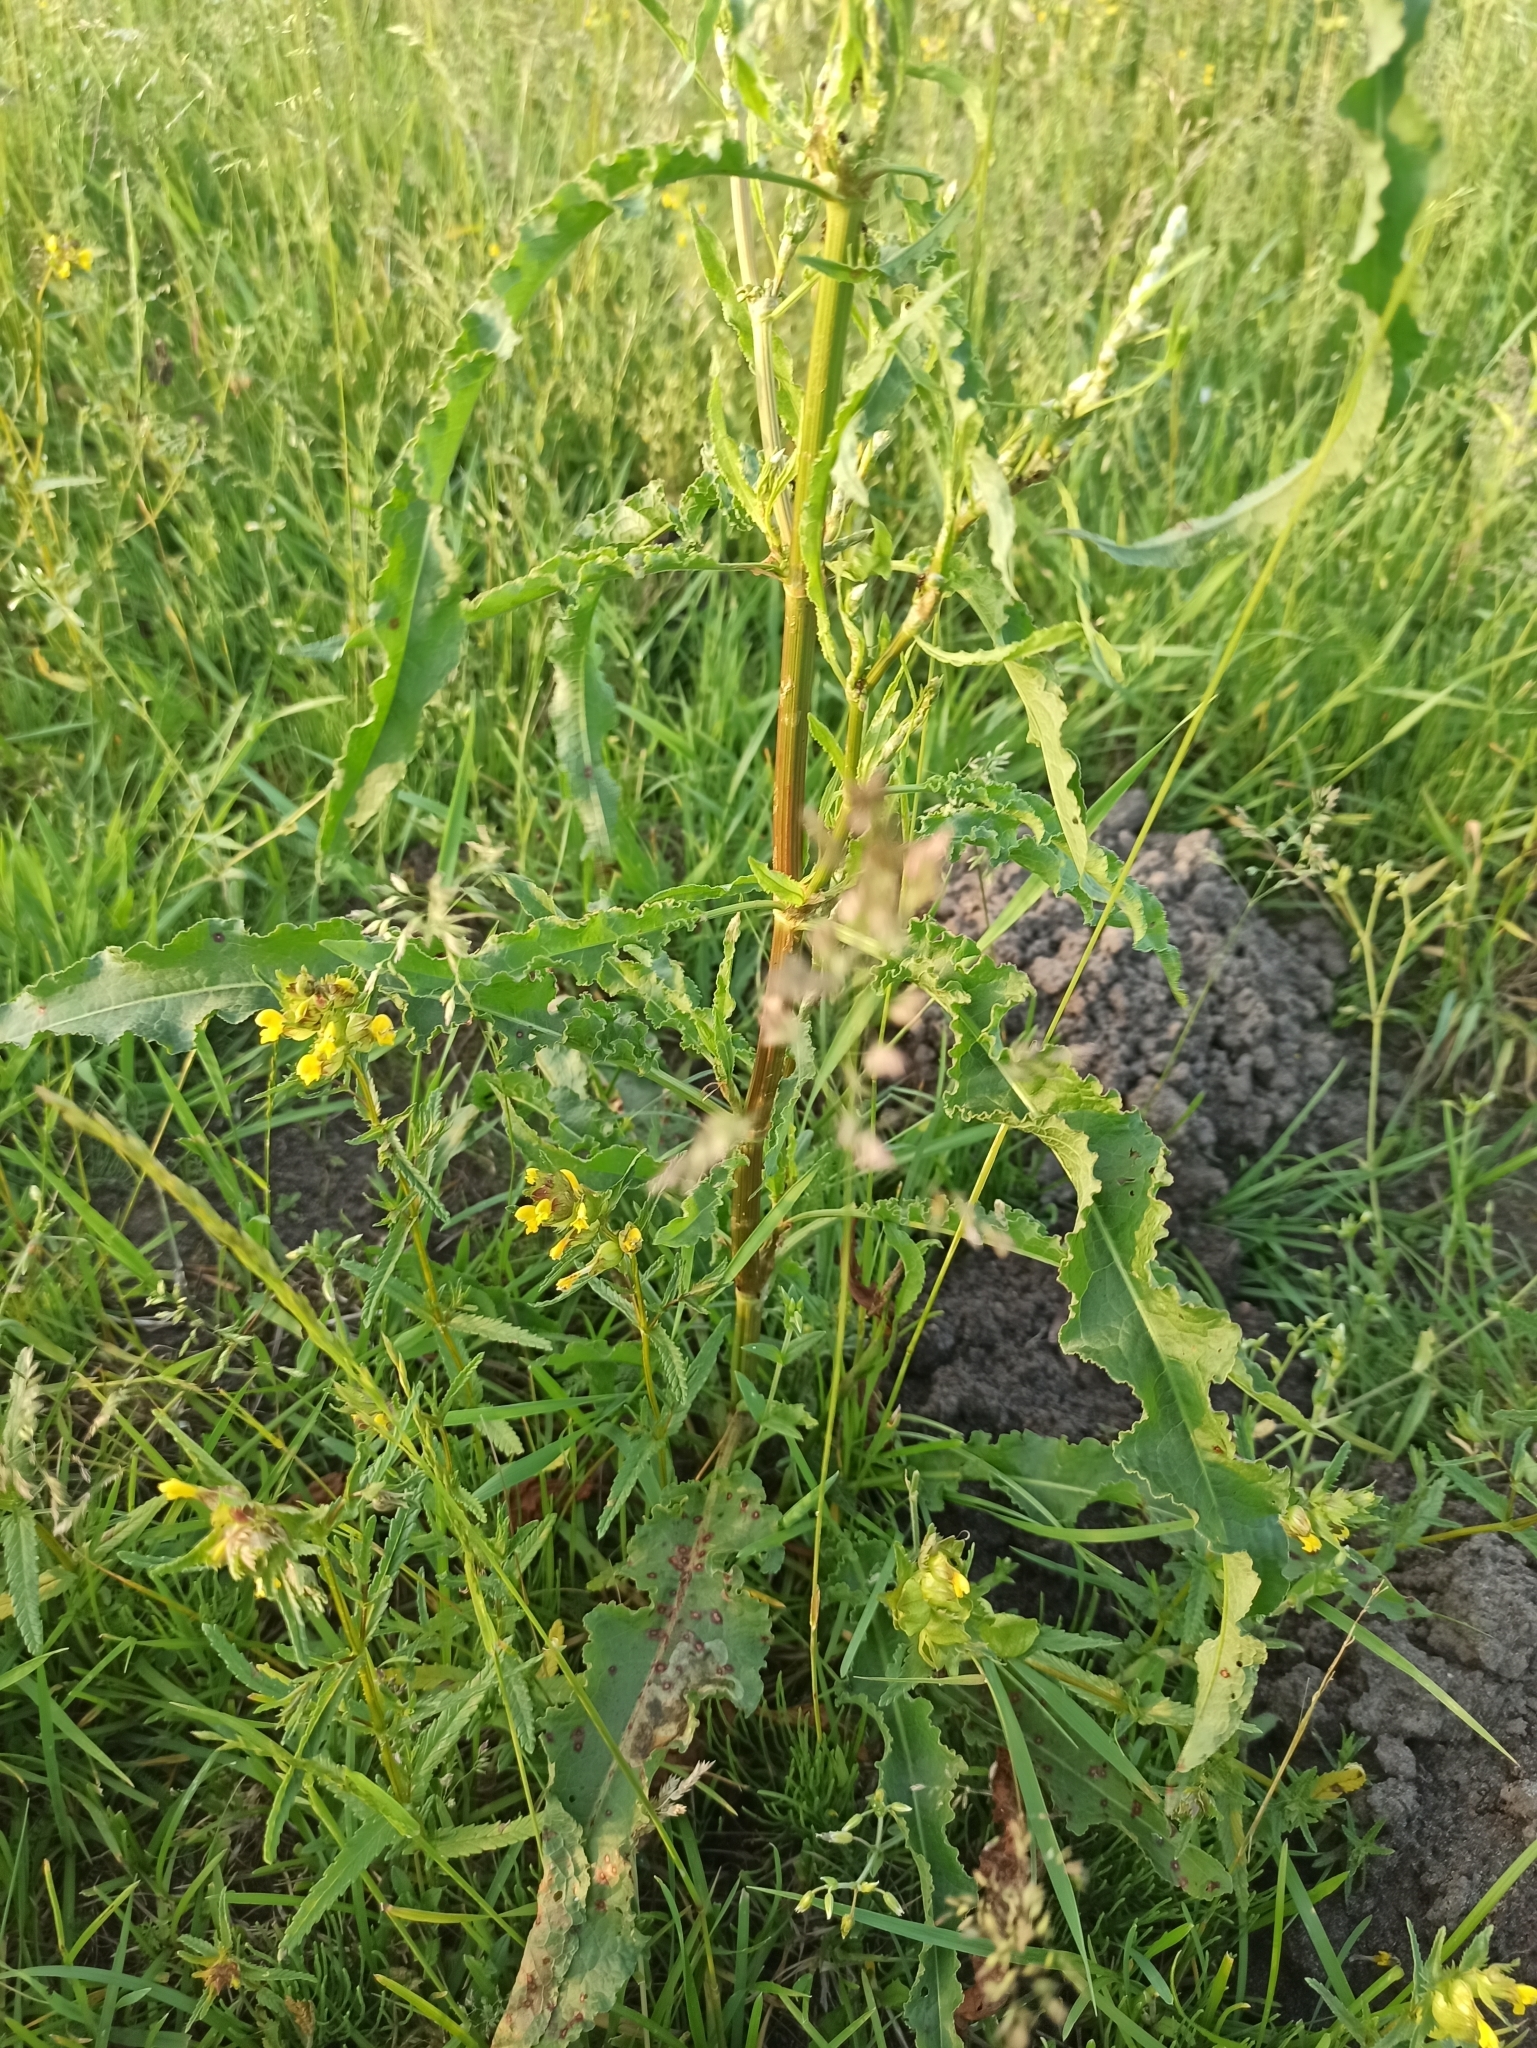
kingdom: Plantae
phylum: Tracheophyta
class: Magnoliopsida
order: Caryophyllales
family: Polygonaceae
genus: Rumex
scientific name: Rumex crispus
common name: Curled dock
